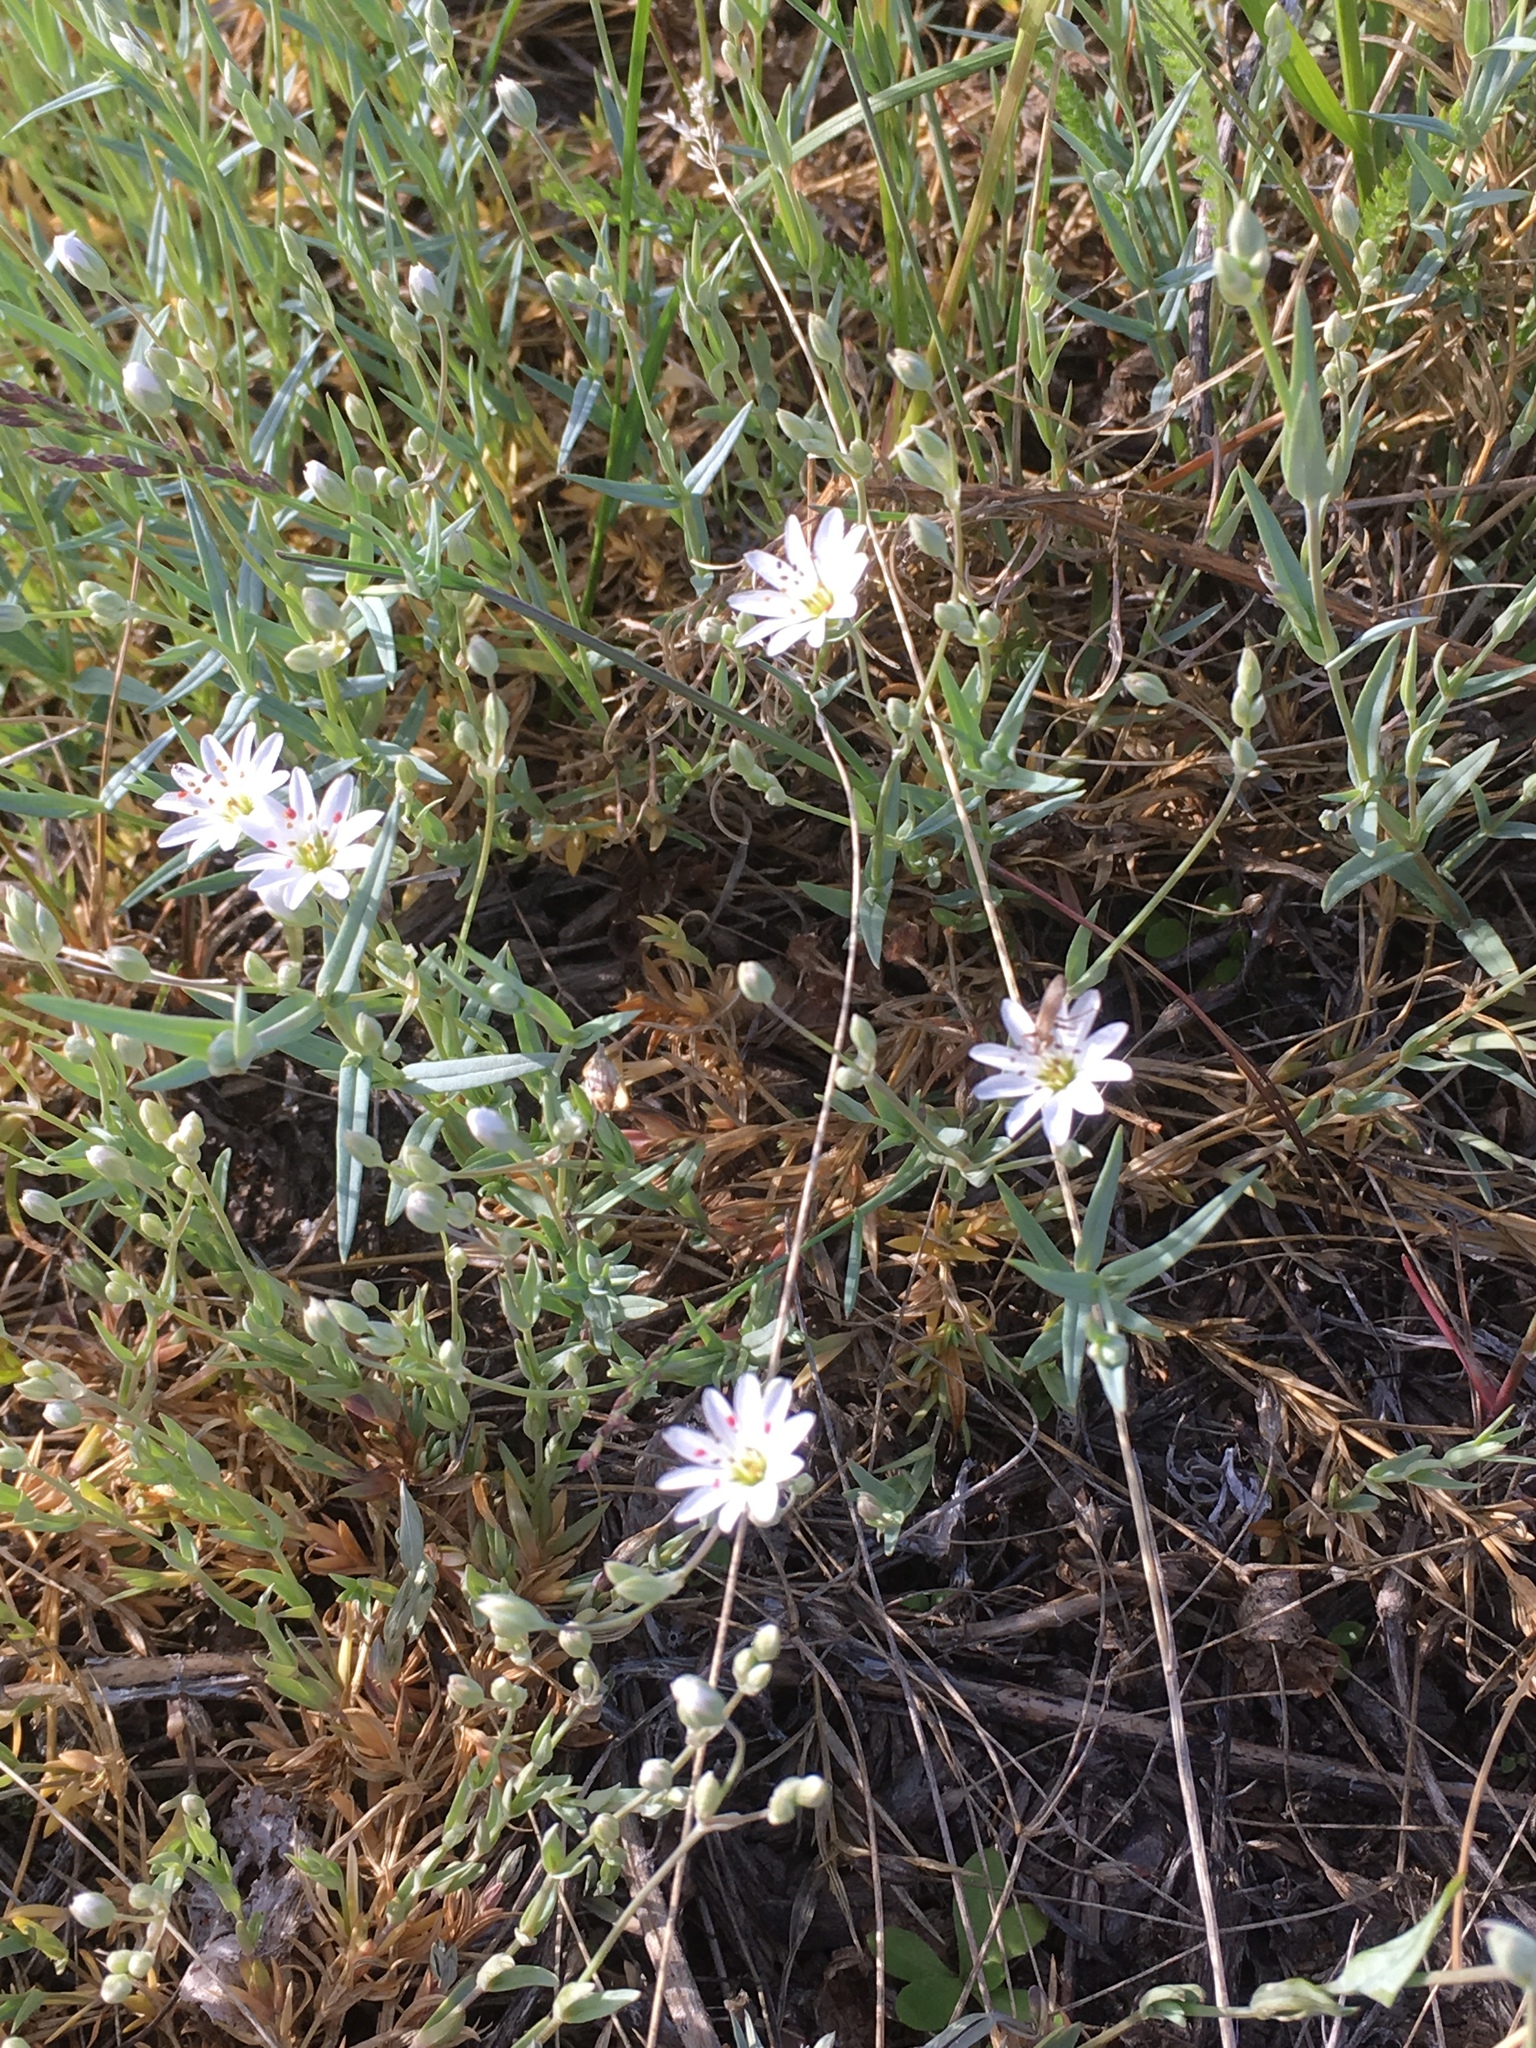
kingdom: Plantae
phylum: Tracheophyta
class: Magnoliopsida
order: Caryophyllales
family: Caryophyllaceae
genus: Stellaria
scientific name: Stellaria longipes
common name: Goldie's starwort
